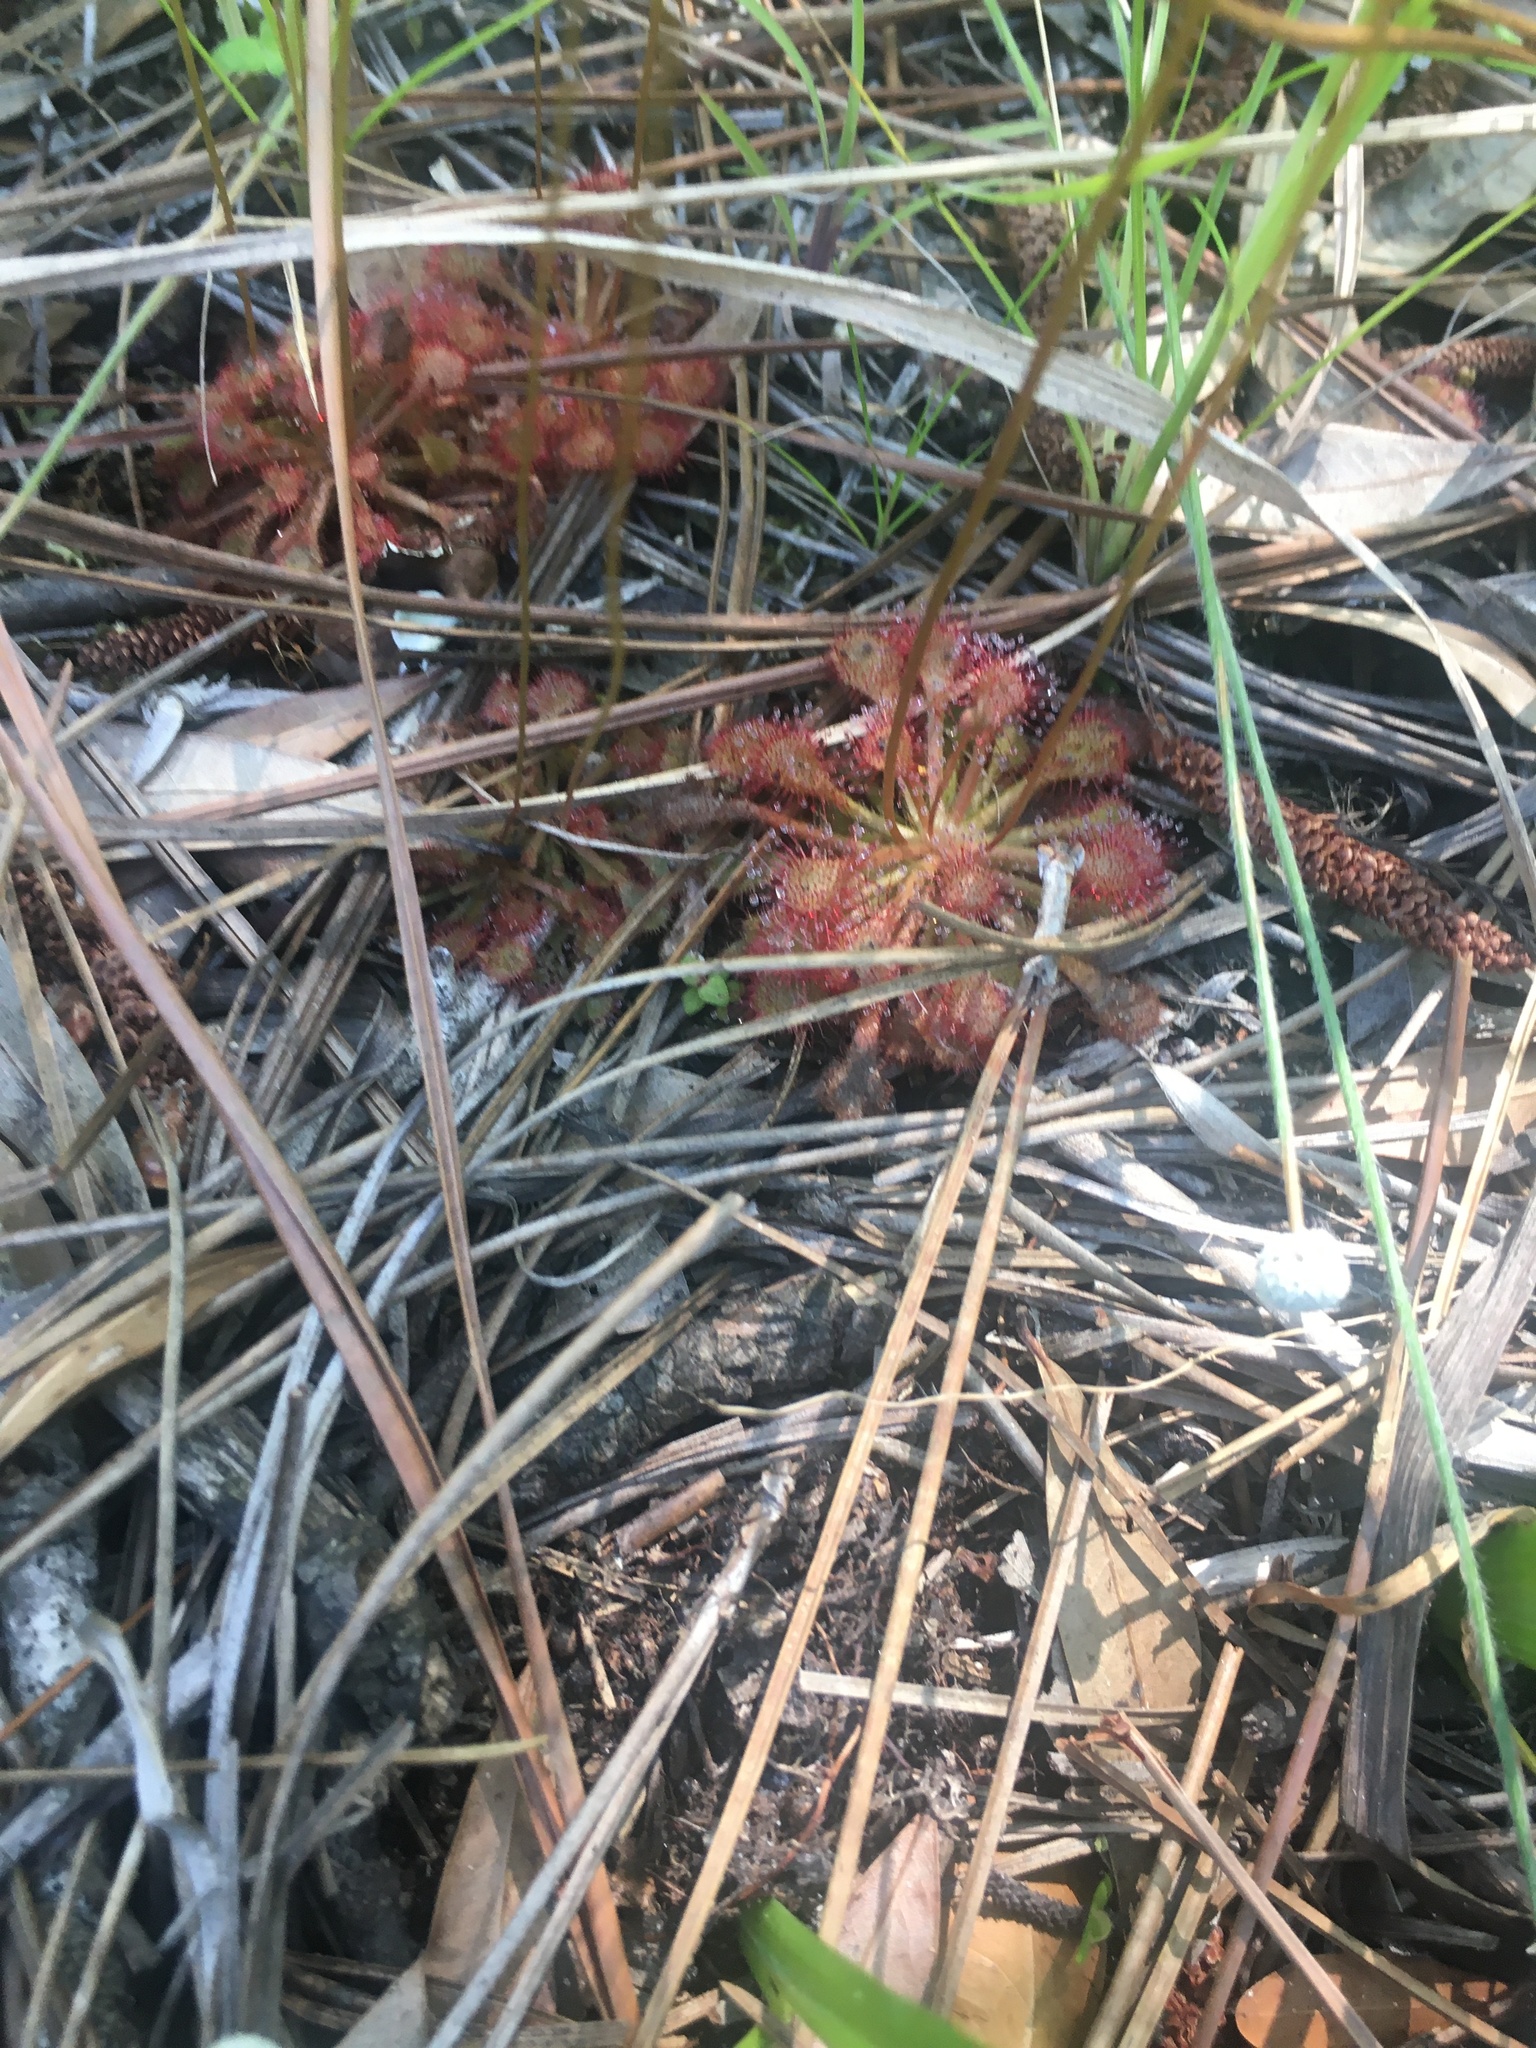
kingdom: Plantae
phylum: Tracheophyta
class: Magnoliopsida
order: Caryophyllales
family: Droseraceae
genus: Drosera
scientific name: Drosera capillaris
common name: Pink sundew
